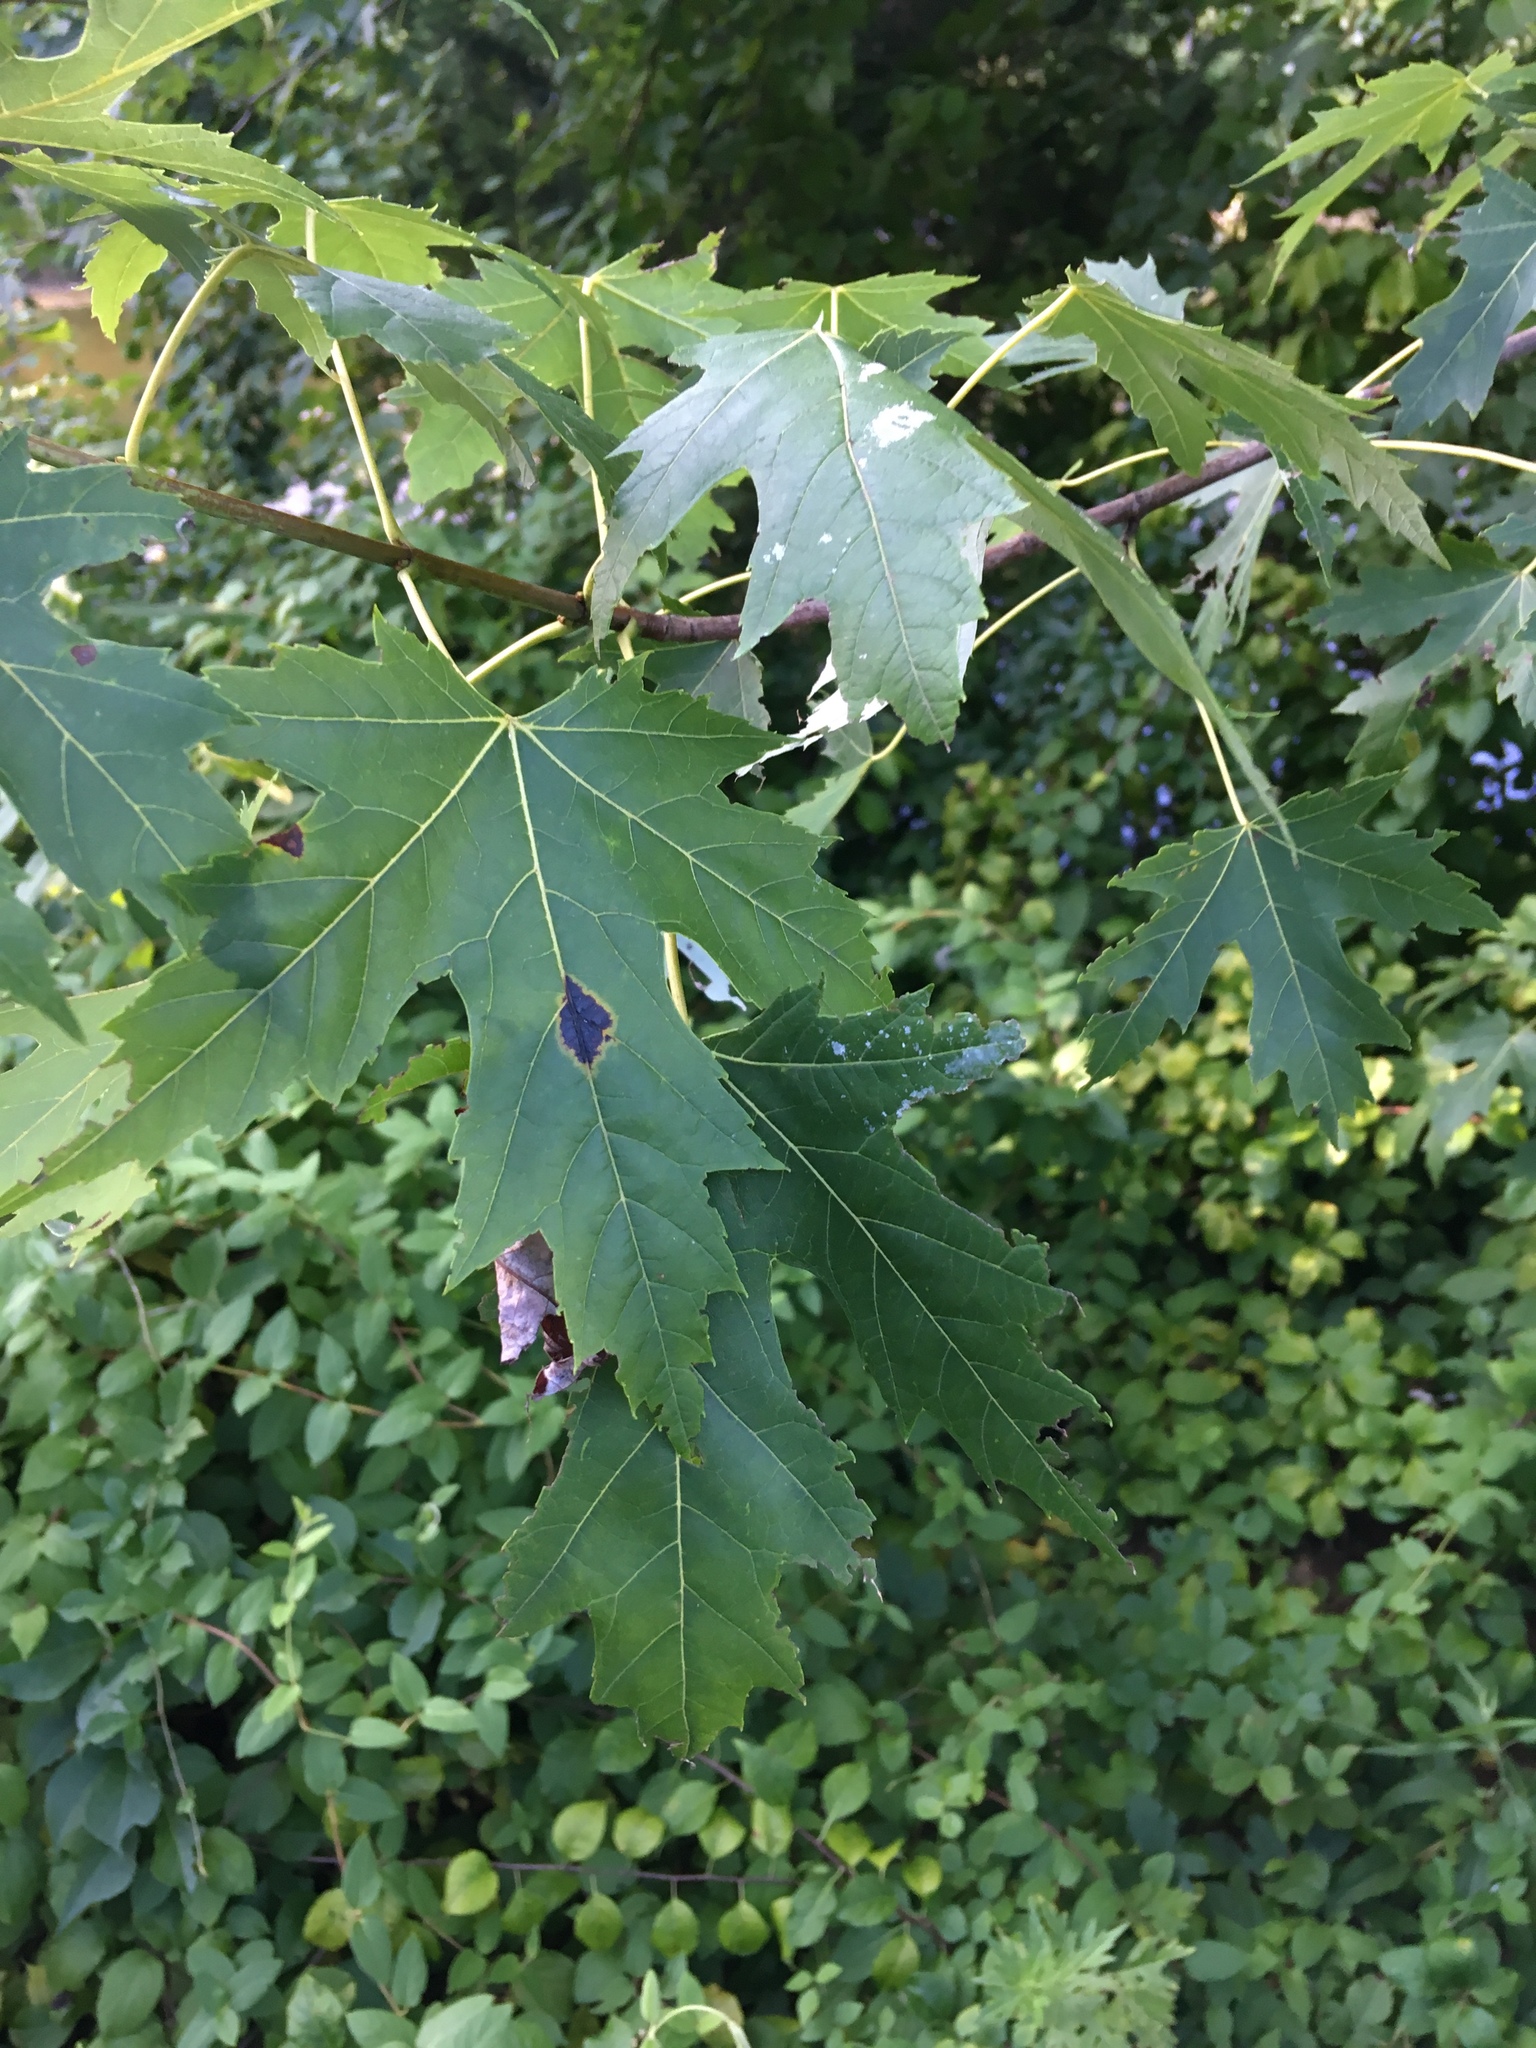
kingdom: Plantae
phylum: Tracheophyta
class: Magnoliopsida
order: Sapindales
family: Sapindaceae
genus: Acer
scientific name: Acer saccharinum
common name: Silver maple
